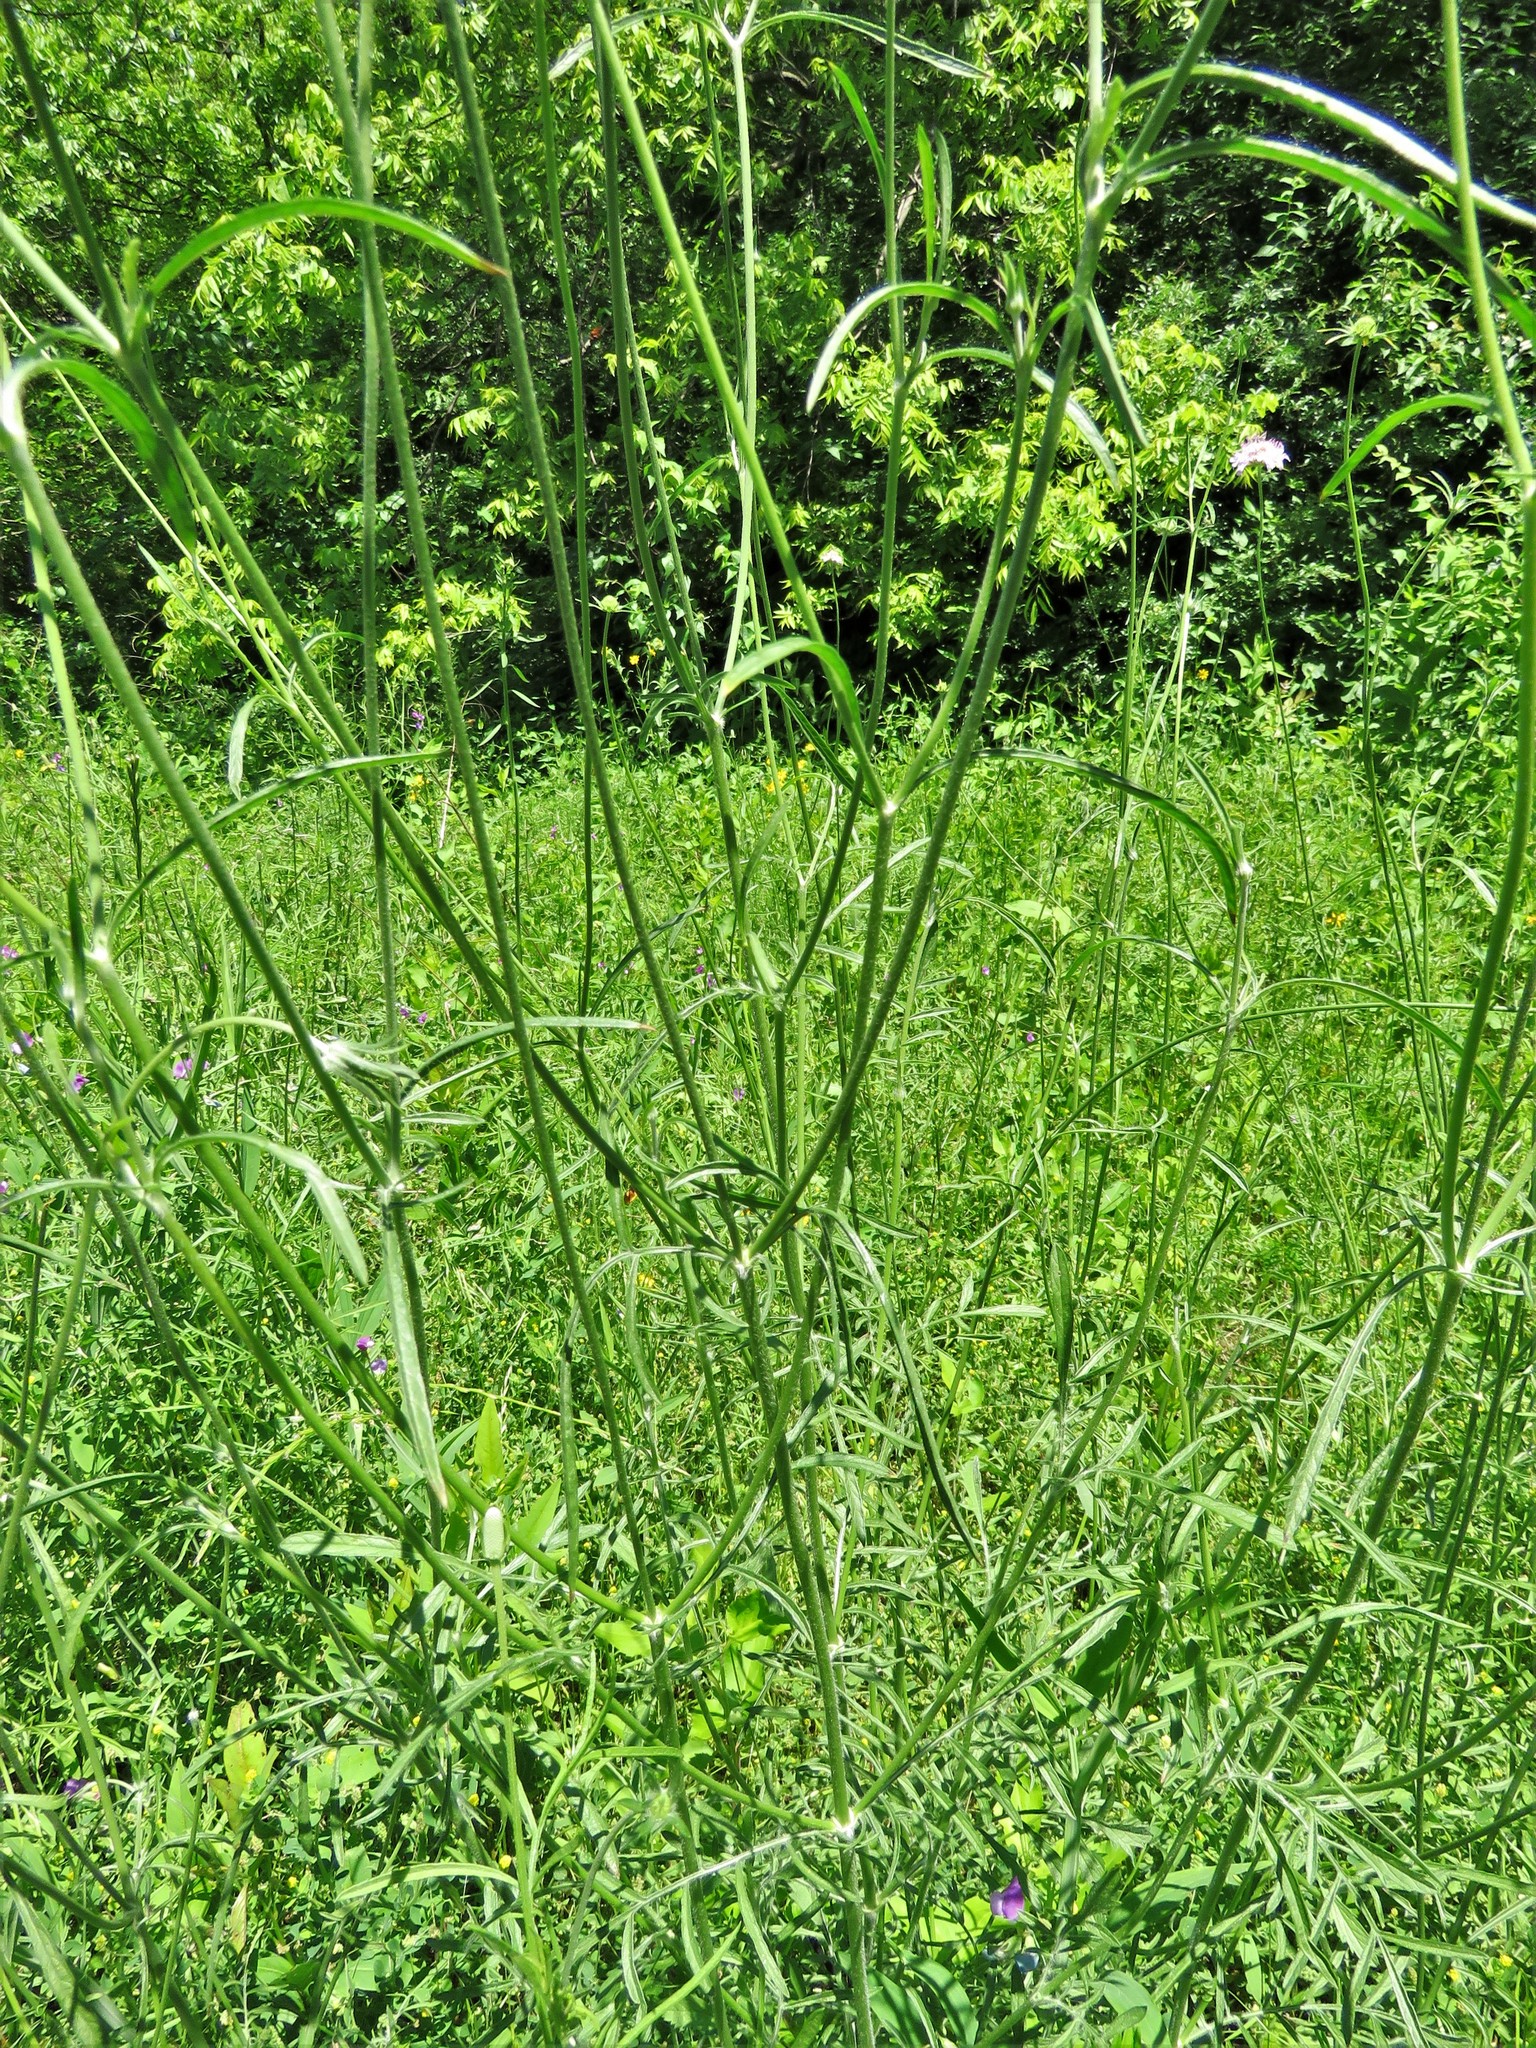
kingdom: Plantae
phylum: Tracheophyta
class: Magnoliopsida
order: Dipsacales
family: Caprifoliaceae
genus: Sixalix
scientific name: Sixalix atropurpurea
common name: Sweet scabious
